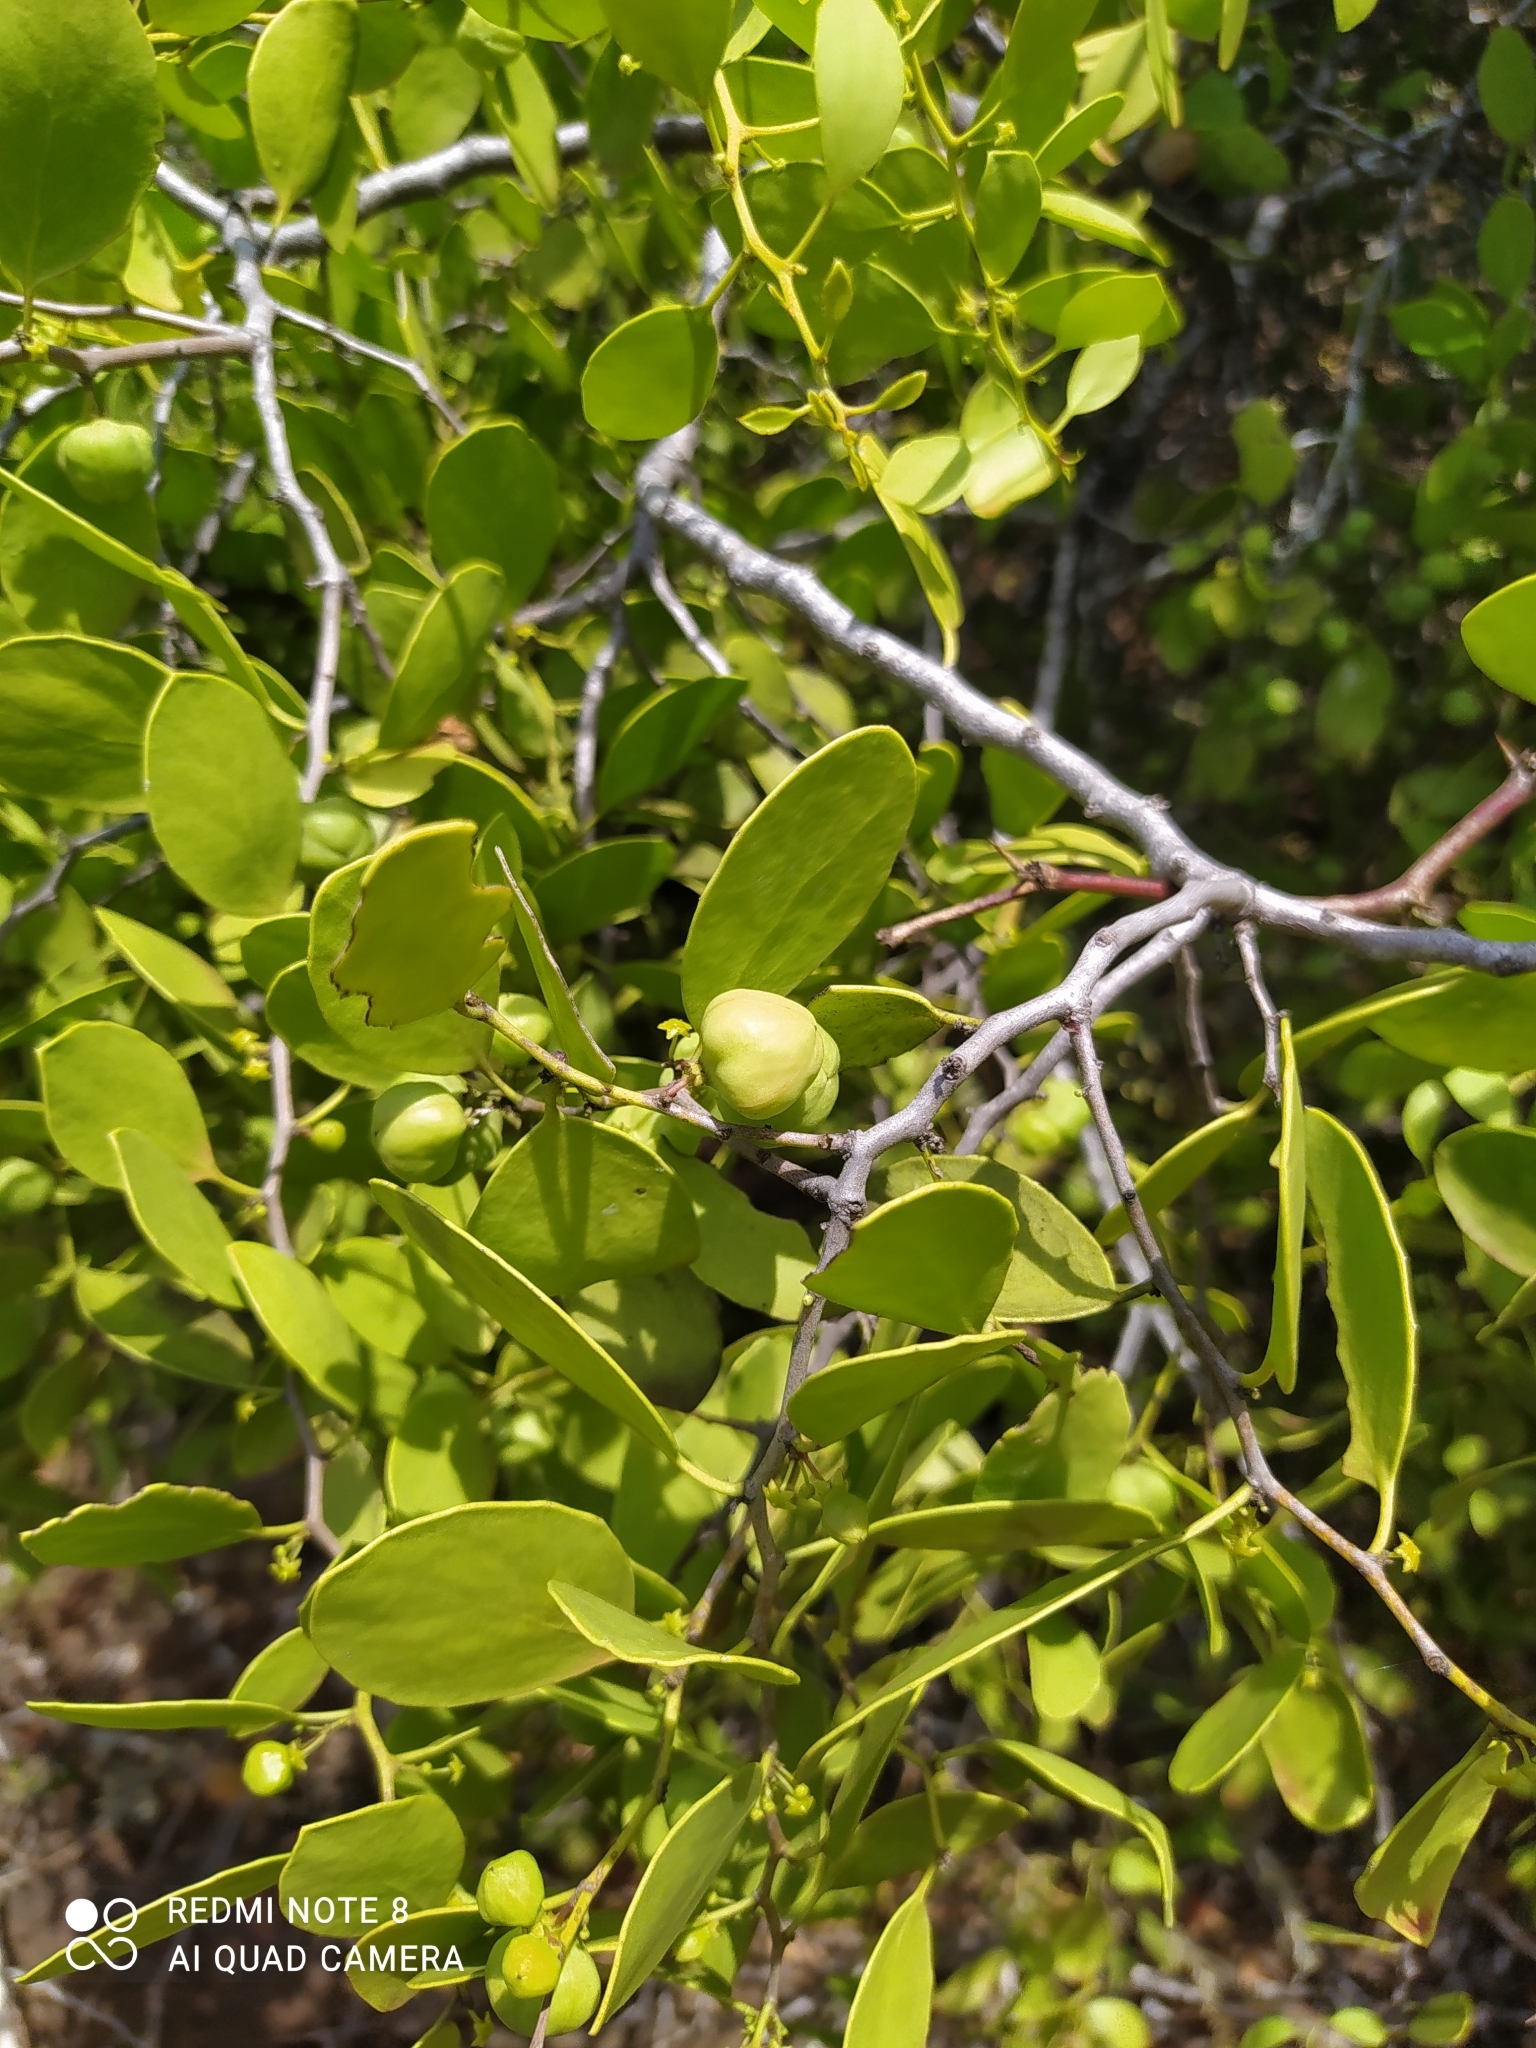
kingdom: Plantae
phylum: Tracheophyta
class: Magnoliopsida
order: Celastrales
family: Celastraceae
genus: Tricerma
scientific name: Tricerma octogonum
